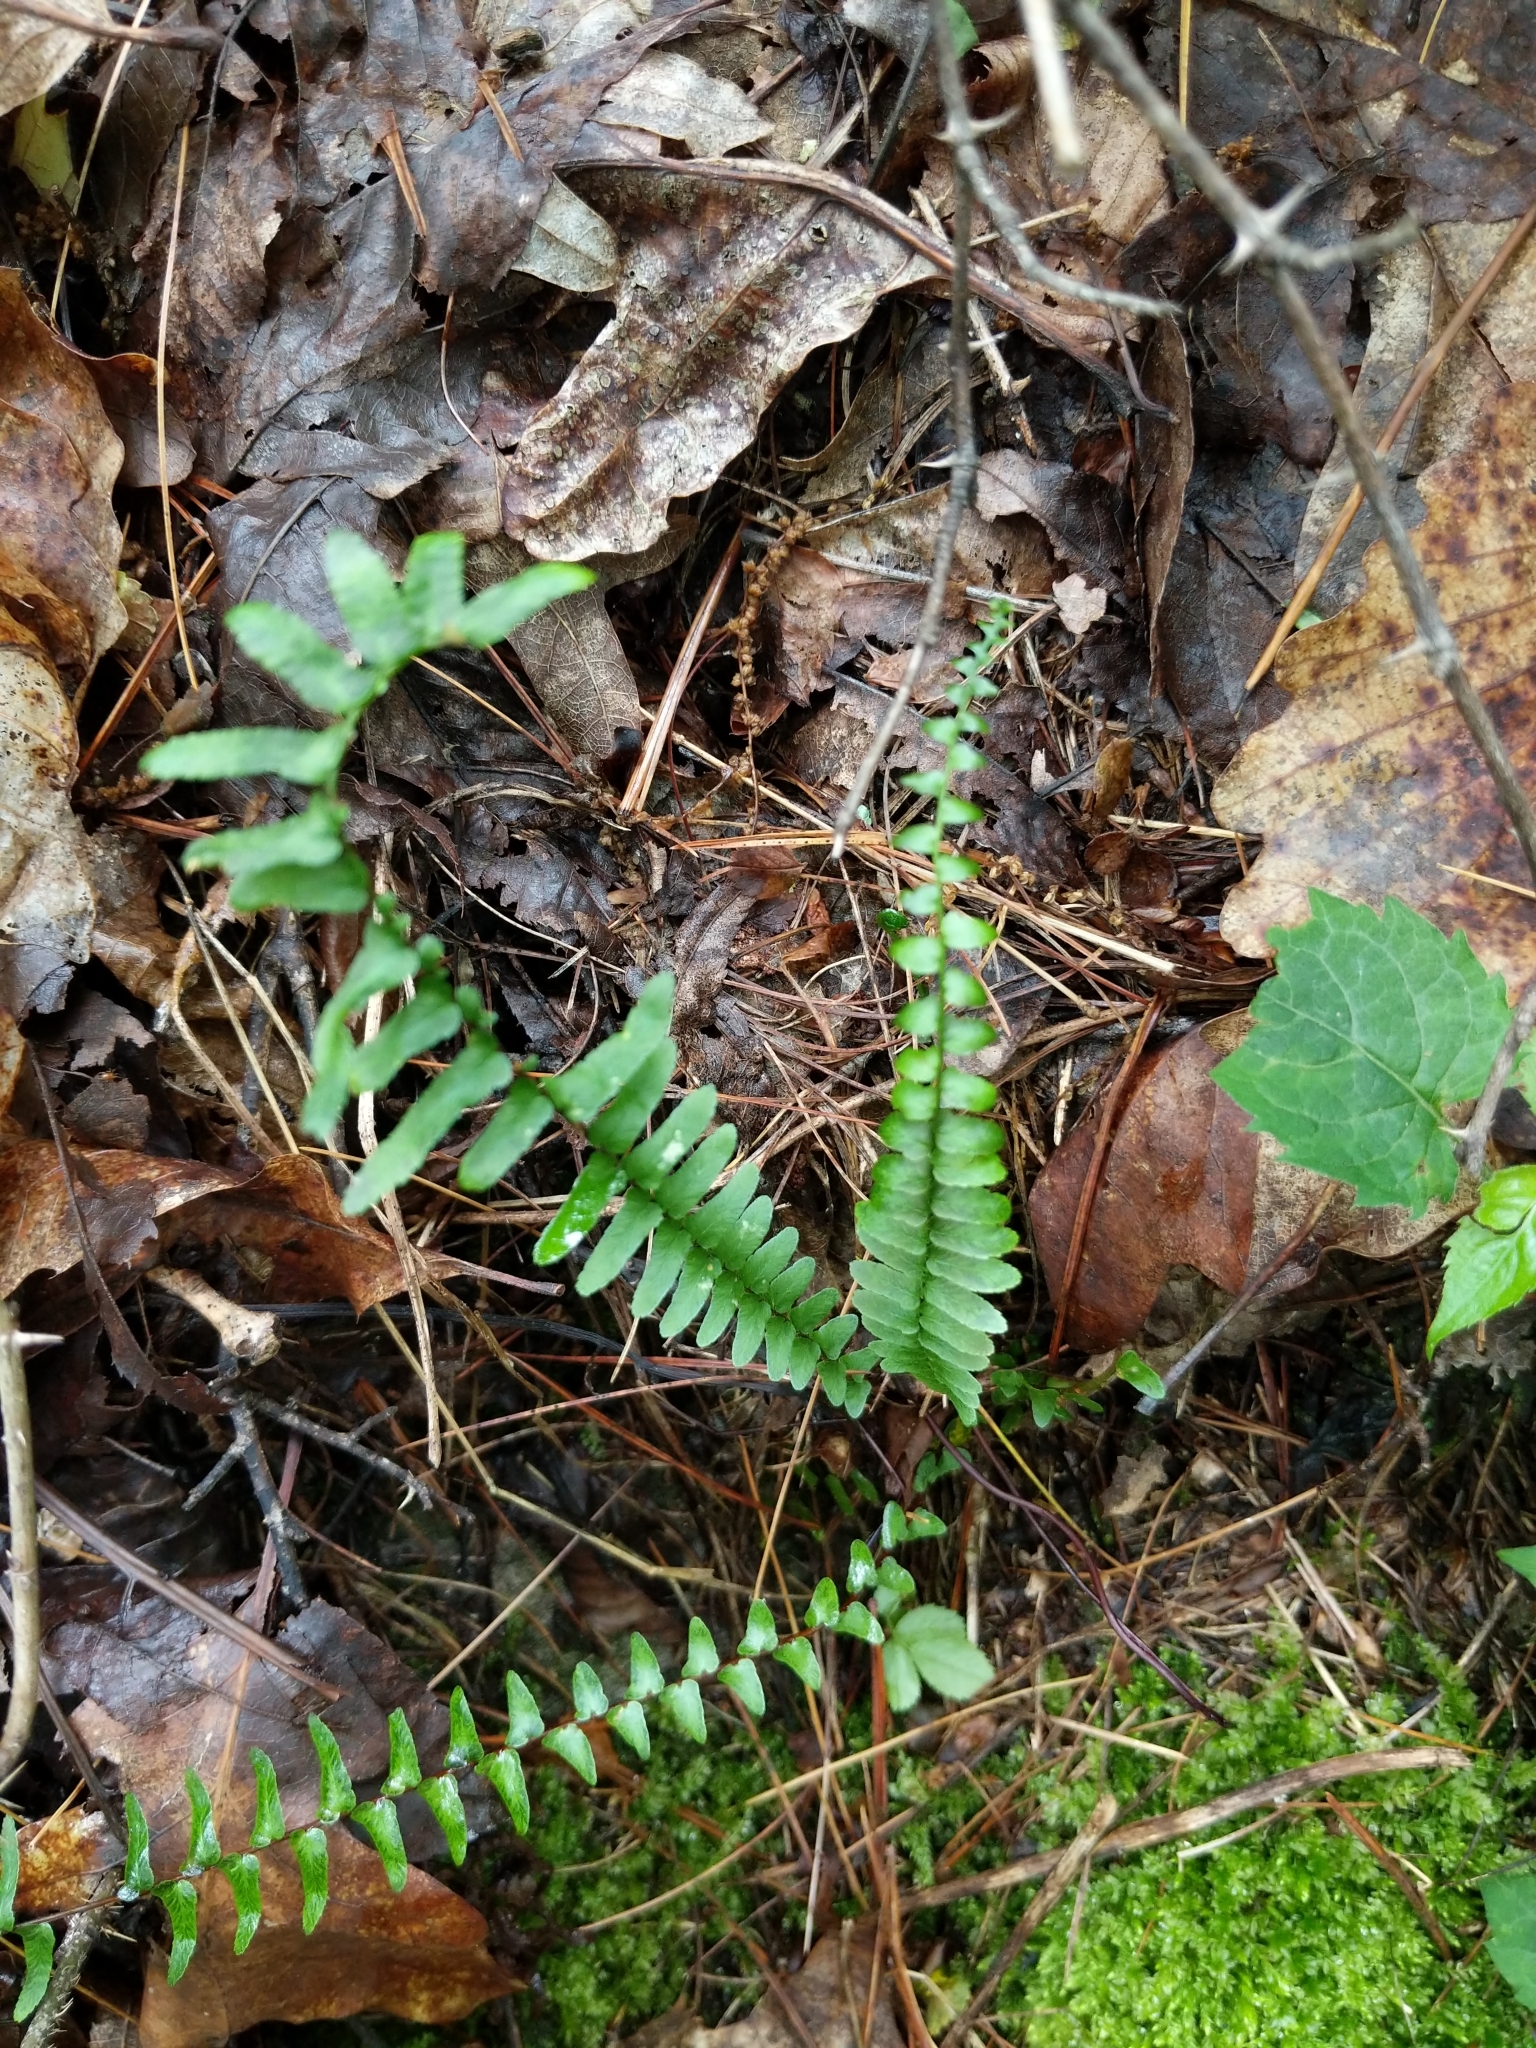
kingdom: Plantae
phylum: Tracheophyta
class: Polypodiopsida
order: Polypodiales
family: Aspleniaceae
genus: Asplenium
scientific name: Asplenium platyneuron
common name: Ebony spleenwort
